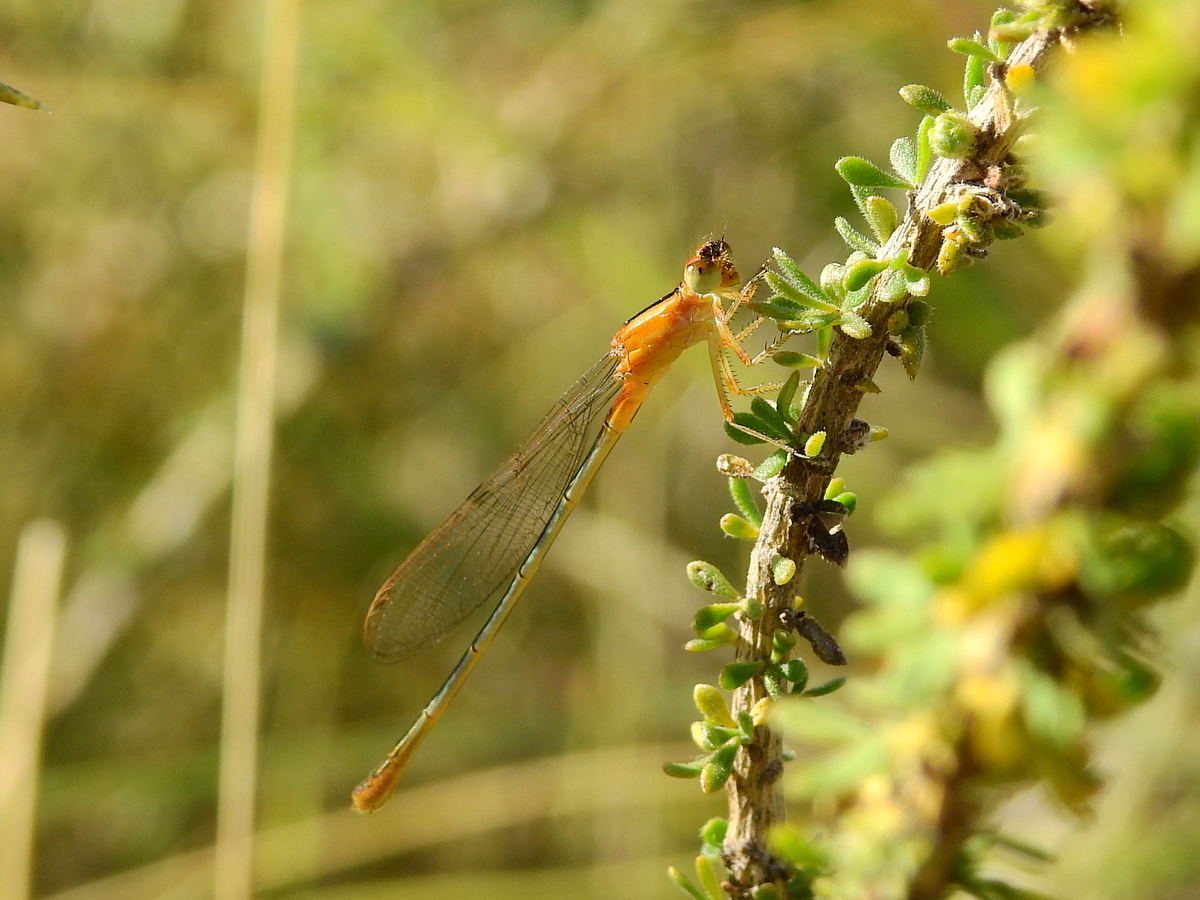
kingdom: Animalia
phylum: Arthropoda
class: Insecta
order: Odonata
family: Coenagrionidae
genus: Ischnura
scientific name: Ischnura fluviatilis
